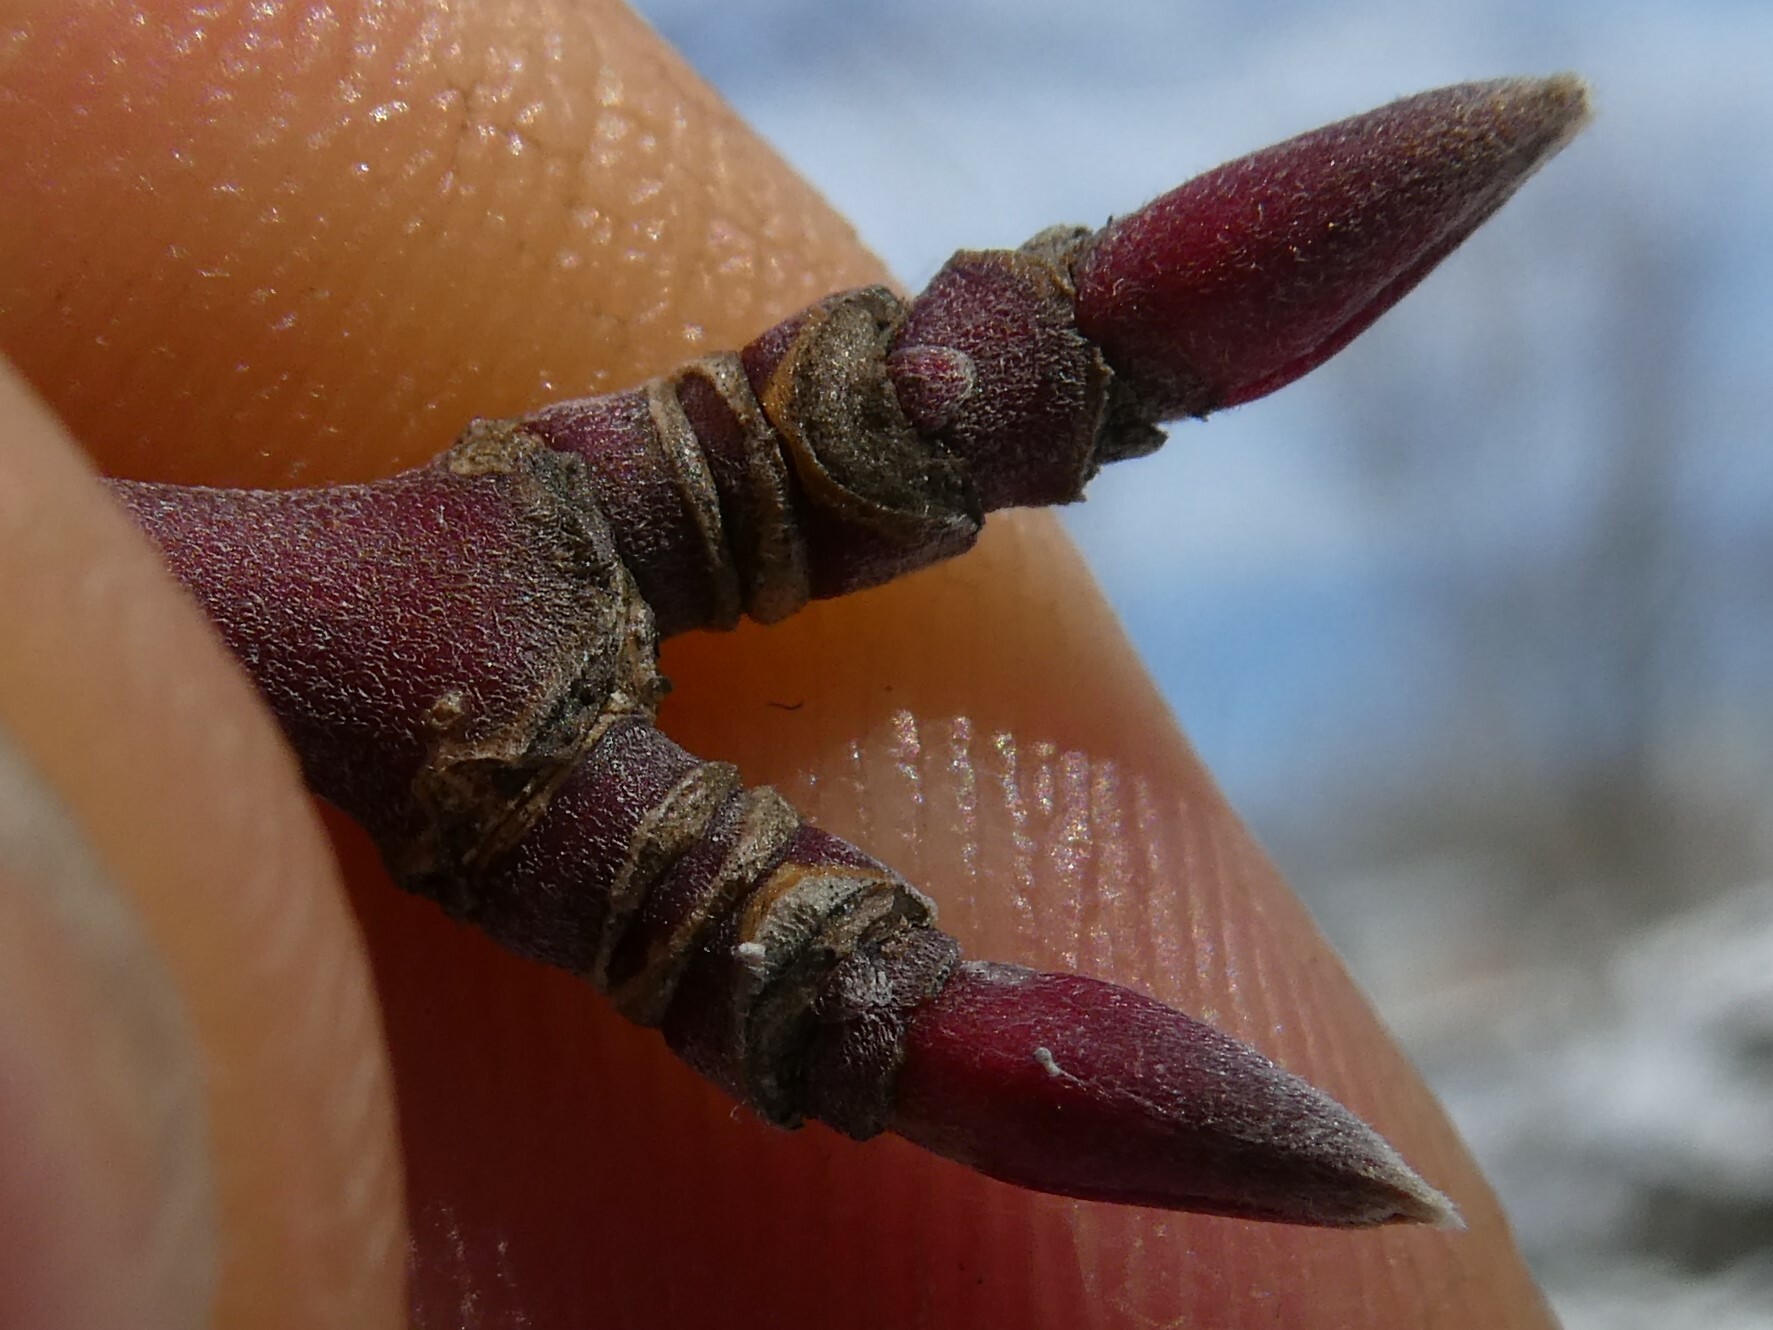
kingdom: Plantae
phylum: Tracheophyta
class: Magnoliopsida
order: Sapindales
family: Sapindaceae
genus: Acer
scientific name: Acer spicatum
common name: Mountain maple
